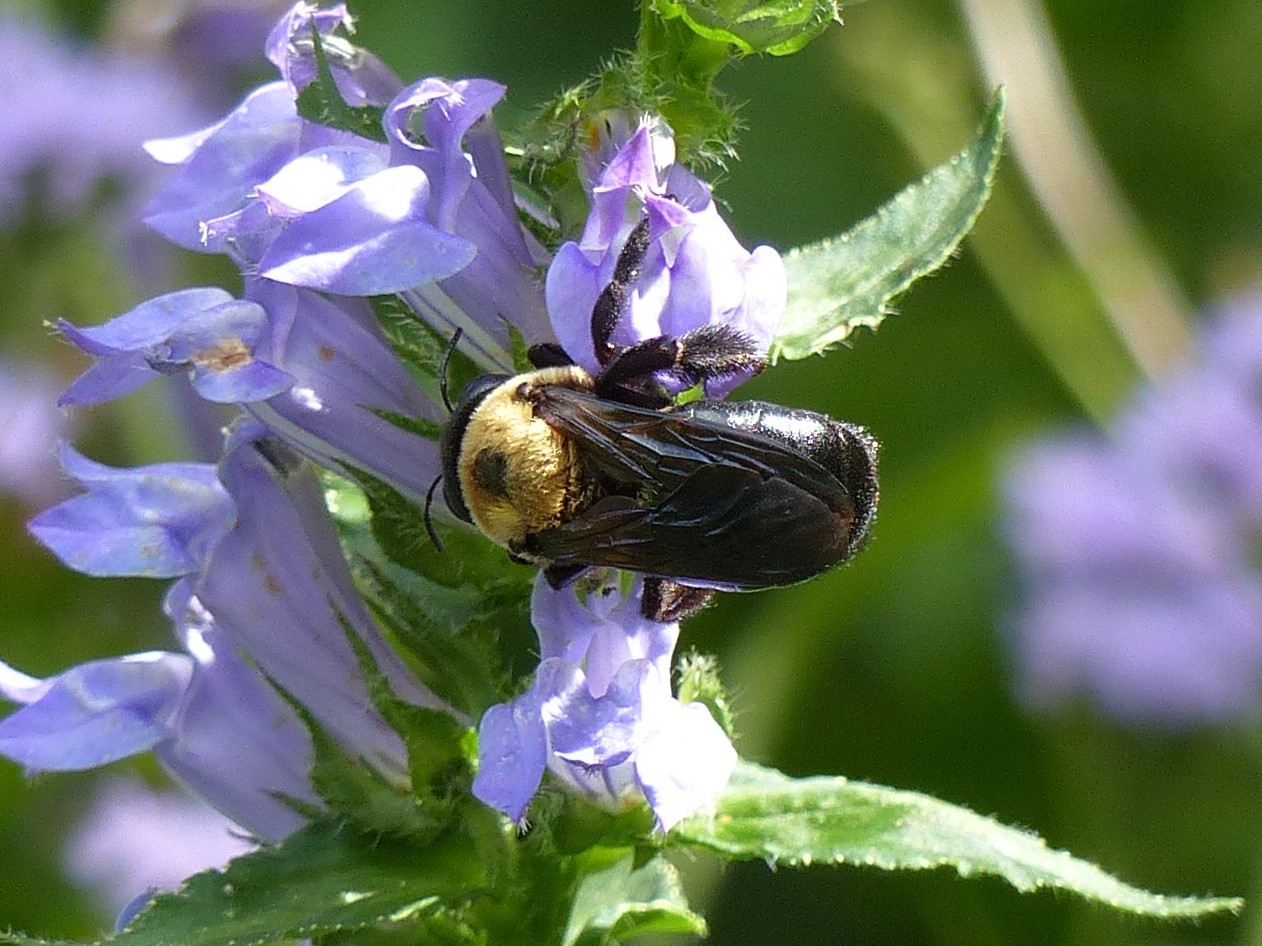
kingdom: Animalia
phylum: Arthropoda
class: Insecta
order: Hymenoptera
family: Apidae
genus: Xylocopa
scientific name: Xylocopa virginica
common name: Carpenter bee
